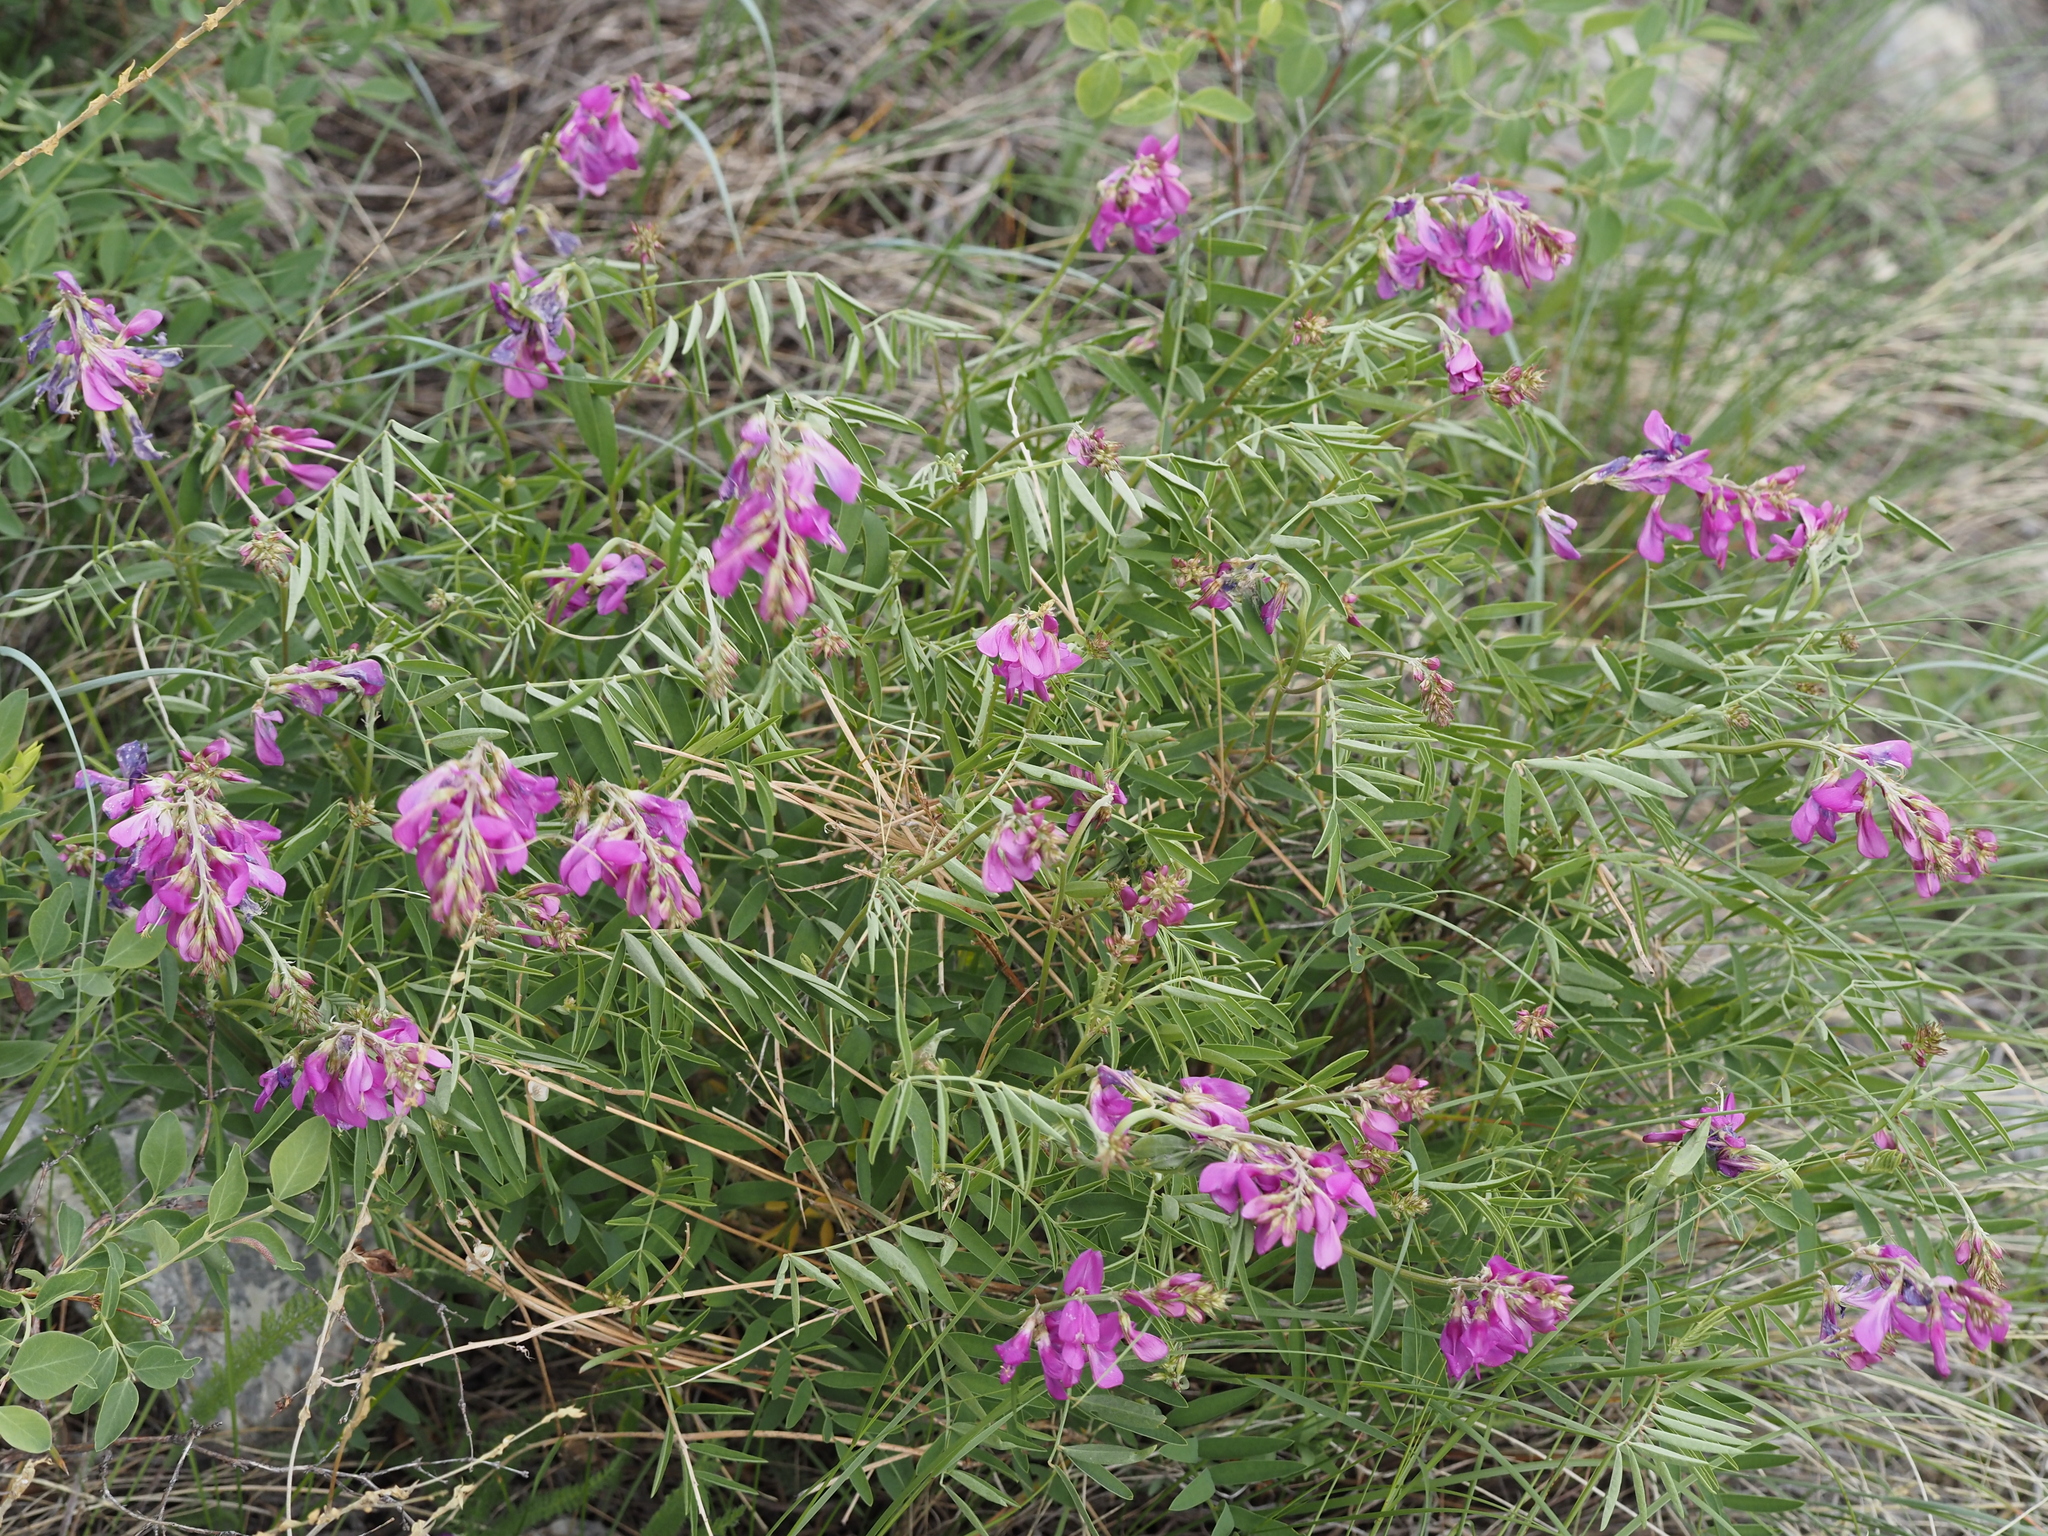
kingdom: Plantae
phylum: Tracheophyta
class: Magnoliopsida
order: Fabales
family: Fabaceae
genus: Hedysarum
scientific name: Hedysarum boreale
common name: Northern sweet-vetch
